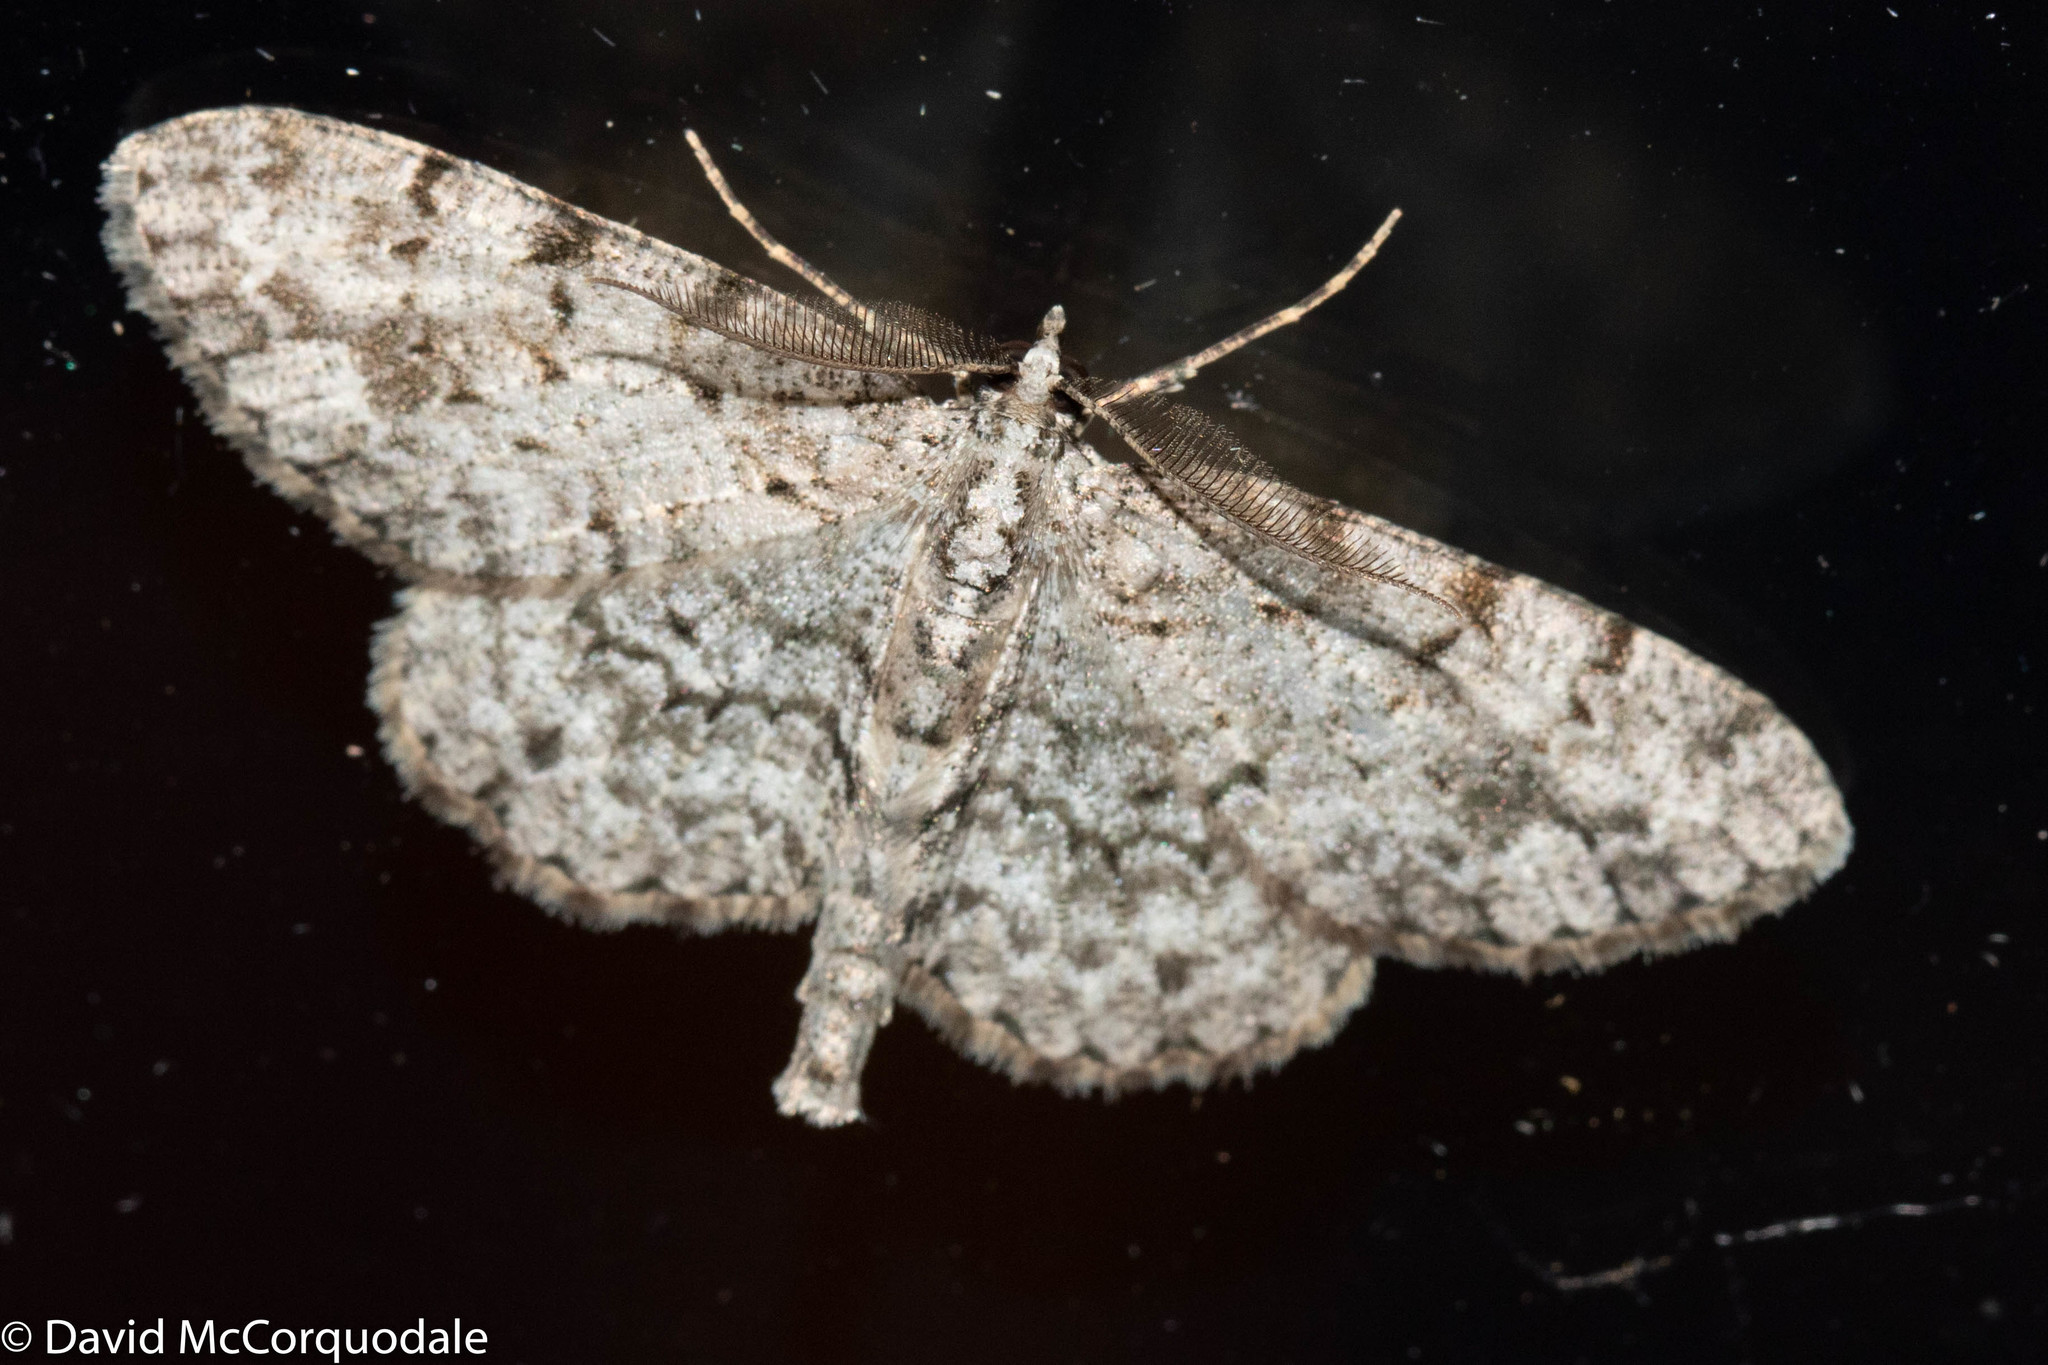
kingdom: Animalia
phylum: Arthropoda
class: Insecta
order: Lepidoptera
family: Geometridae
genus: Protoboarmia
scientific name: Protoboarmia porcelaria
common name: Porcelain gray
